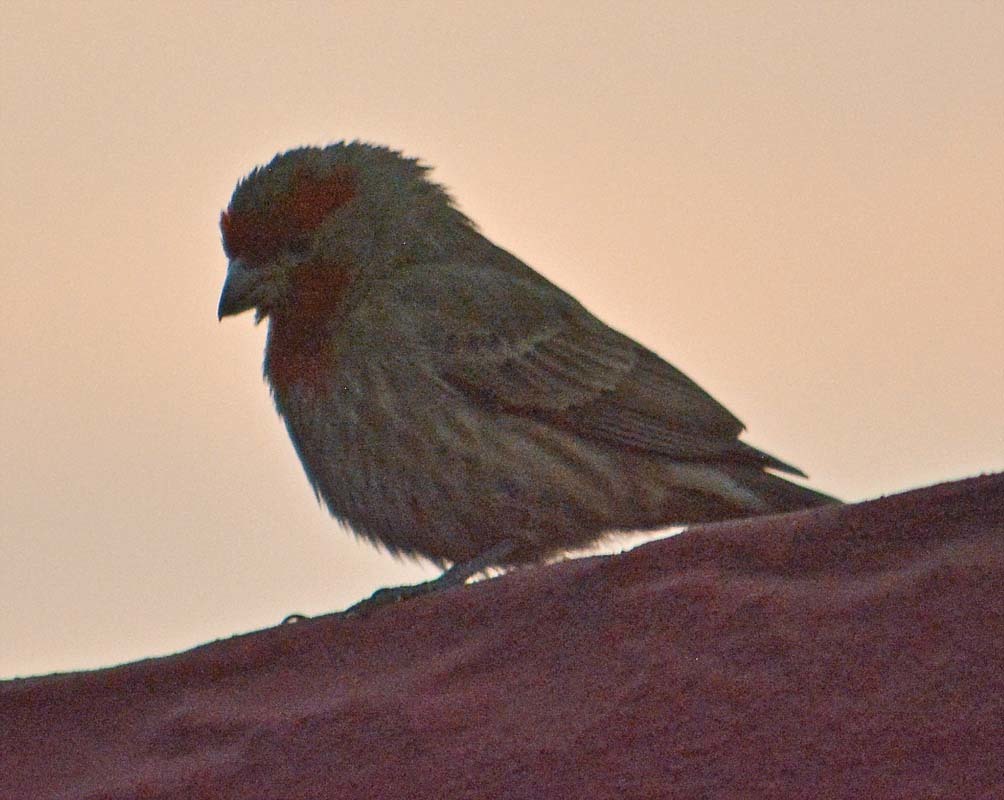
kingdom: Animalia
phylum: Chordata
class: Aves
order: Passeriformes
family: Fringillidae
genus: Haemorhous
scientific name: Haemorhous mexicanus
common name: House finch
